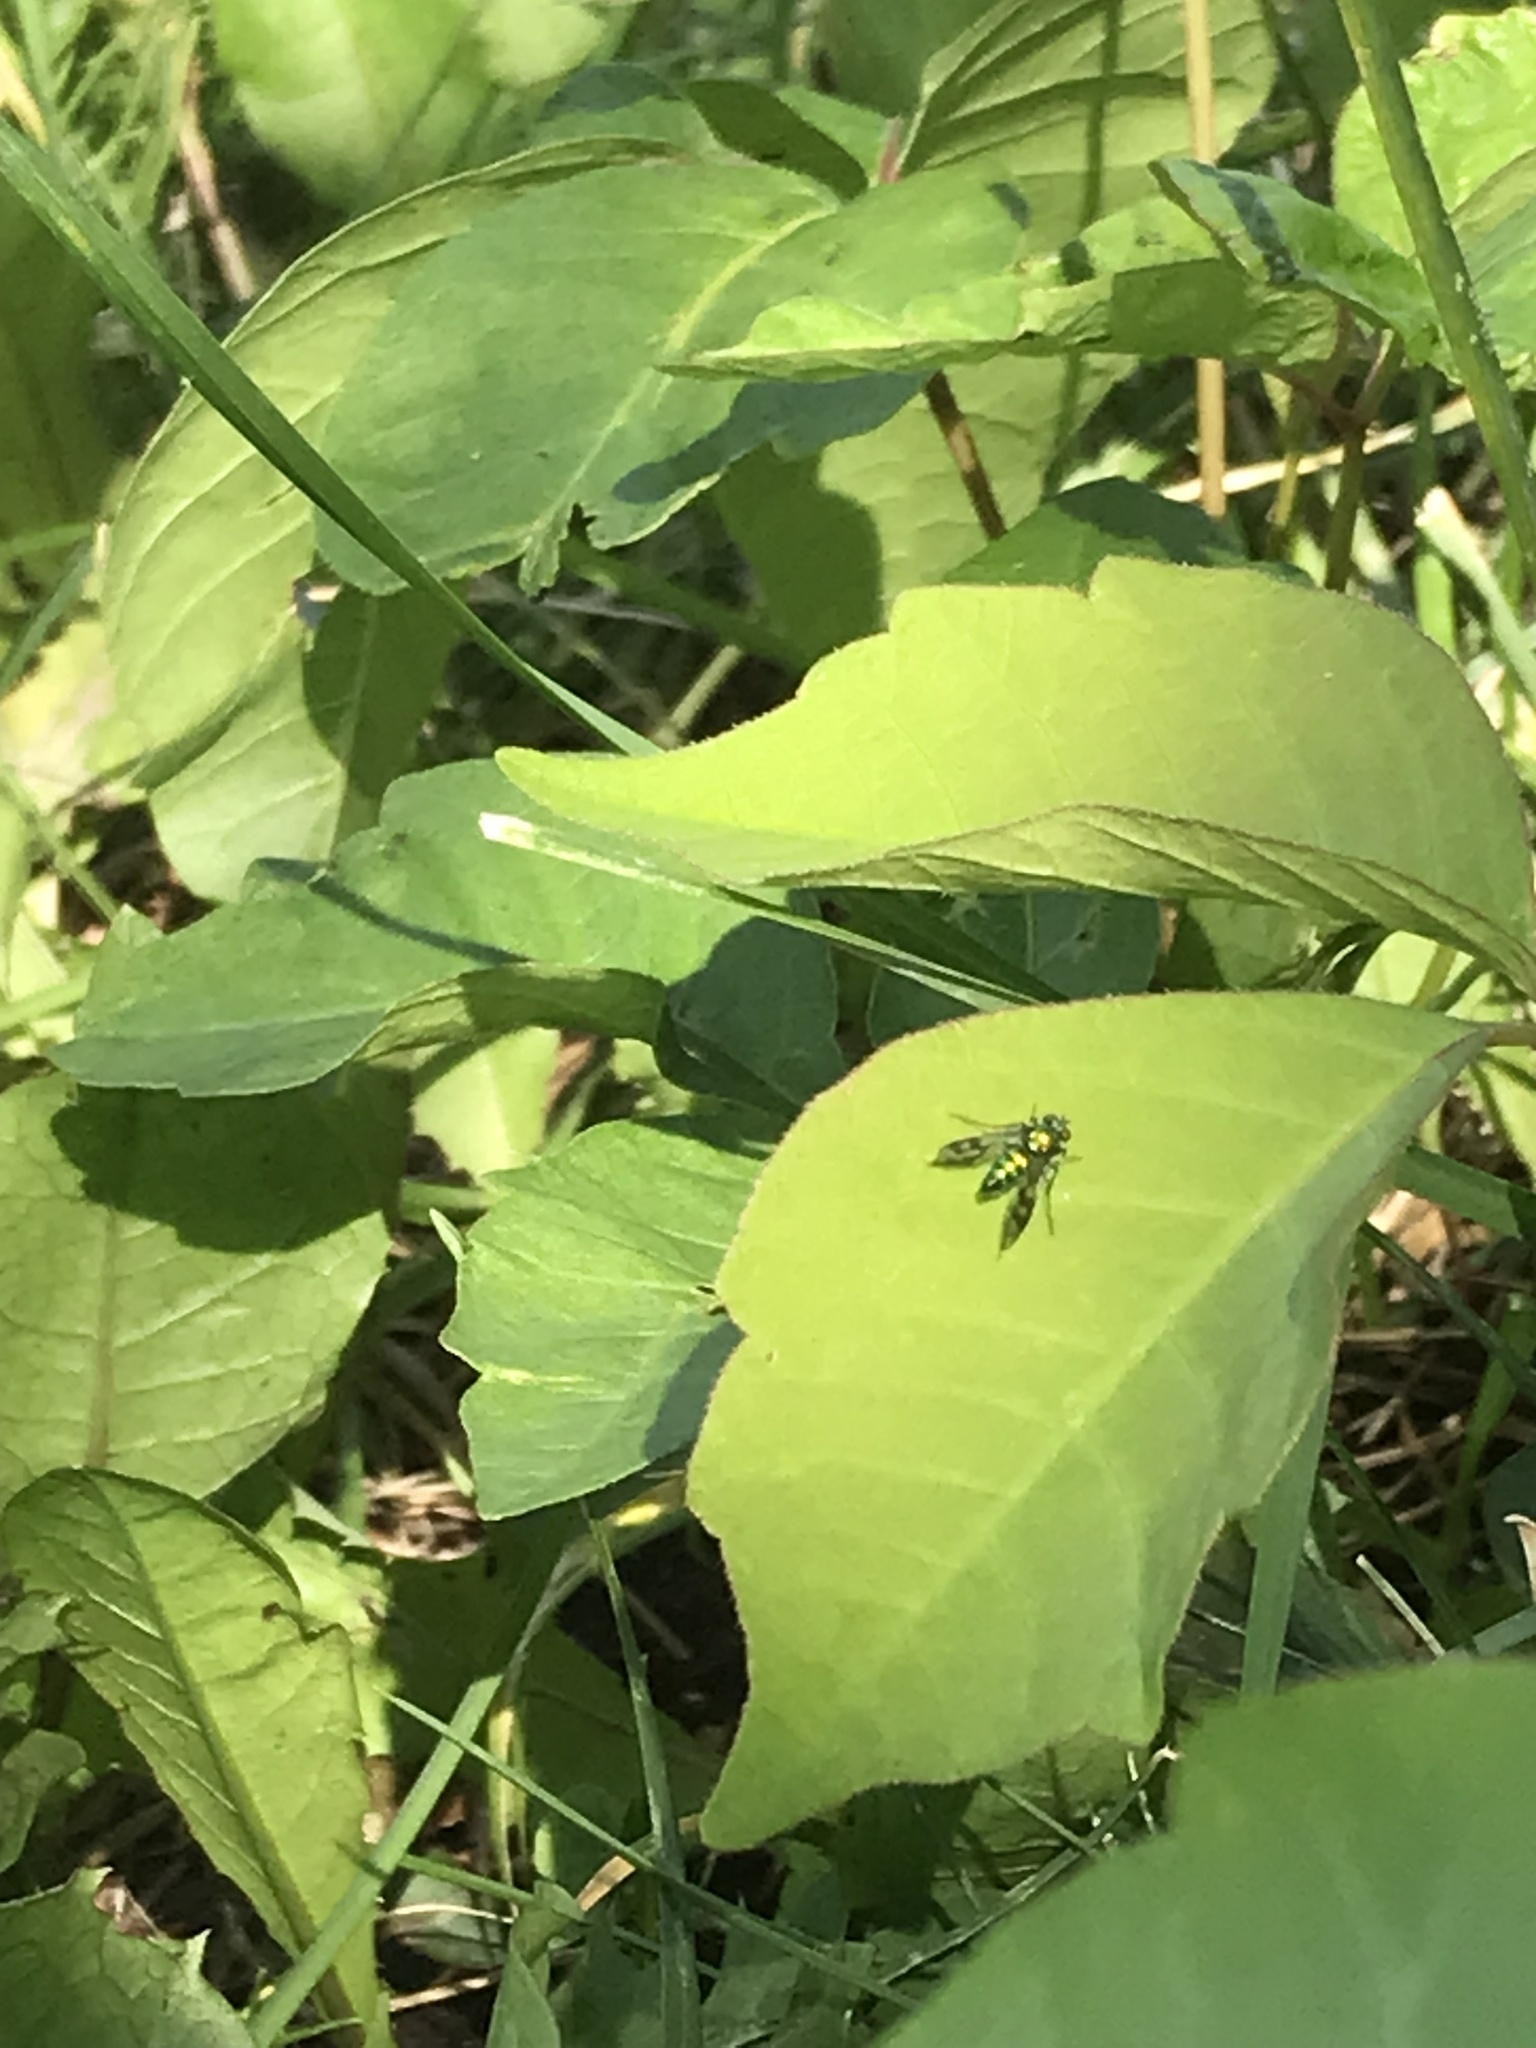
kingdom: Animalia
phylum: Arthropoda
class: Insecta
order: Diptera
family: Dolichopodidae
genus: Condylostylus
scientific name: Condylostylus occidentalis
